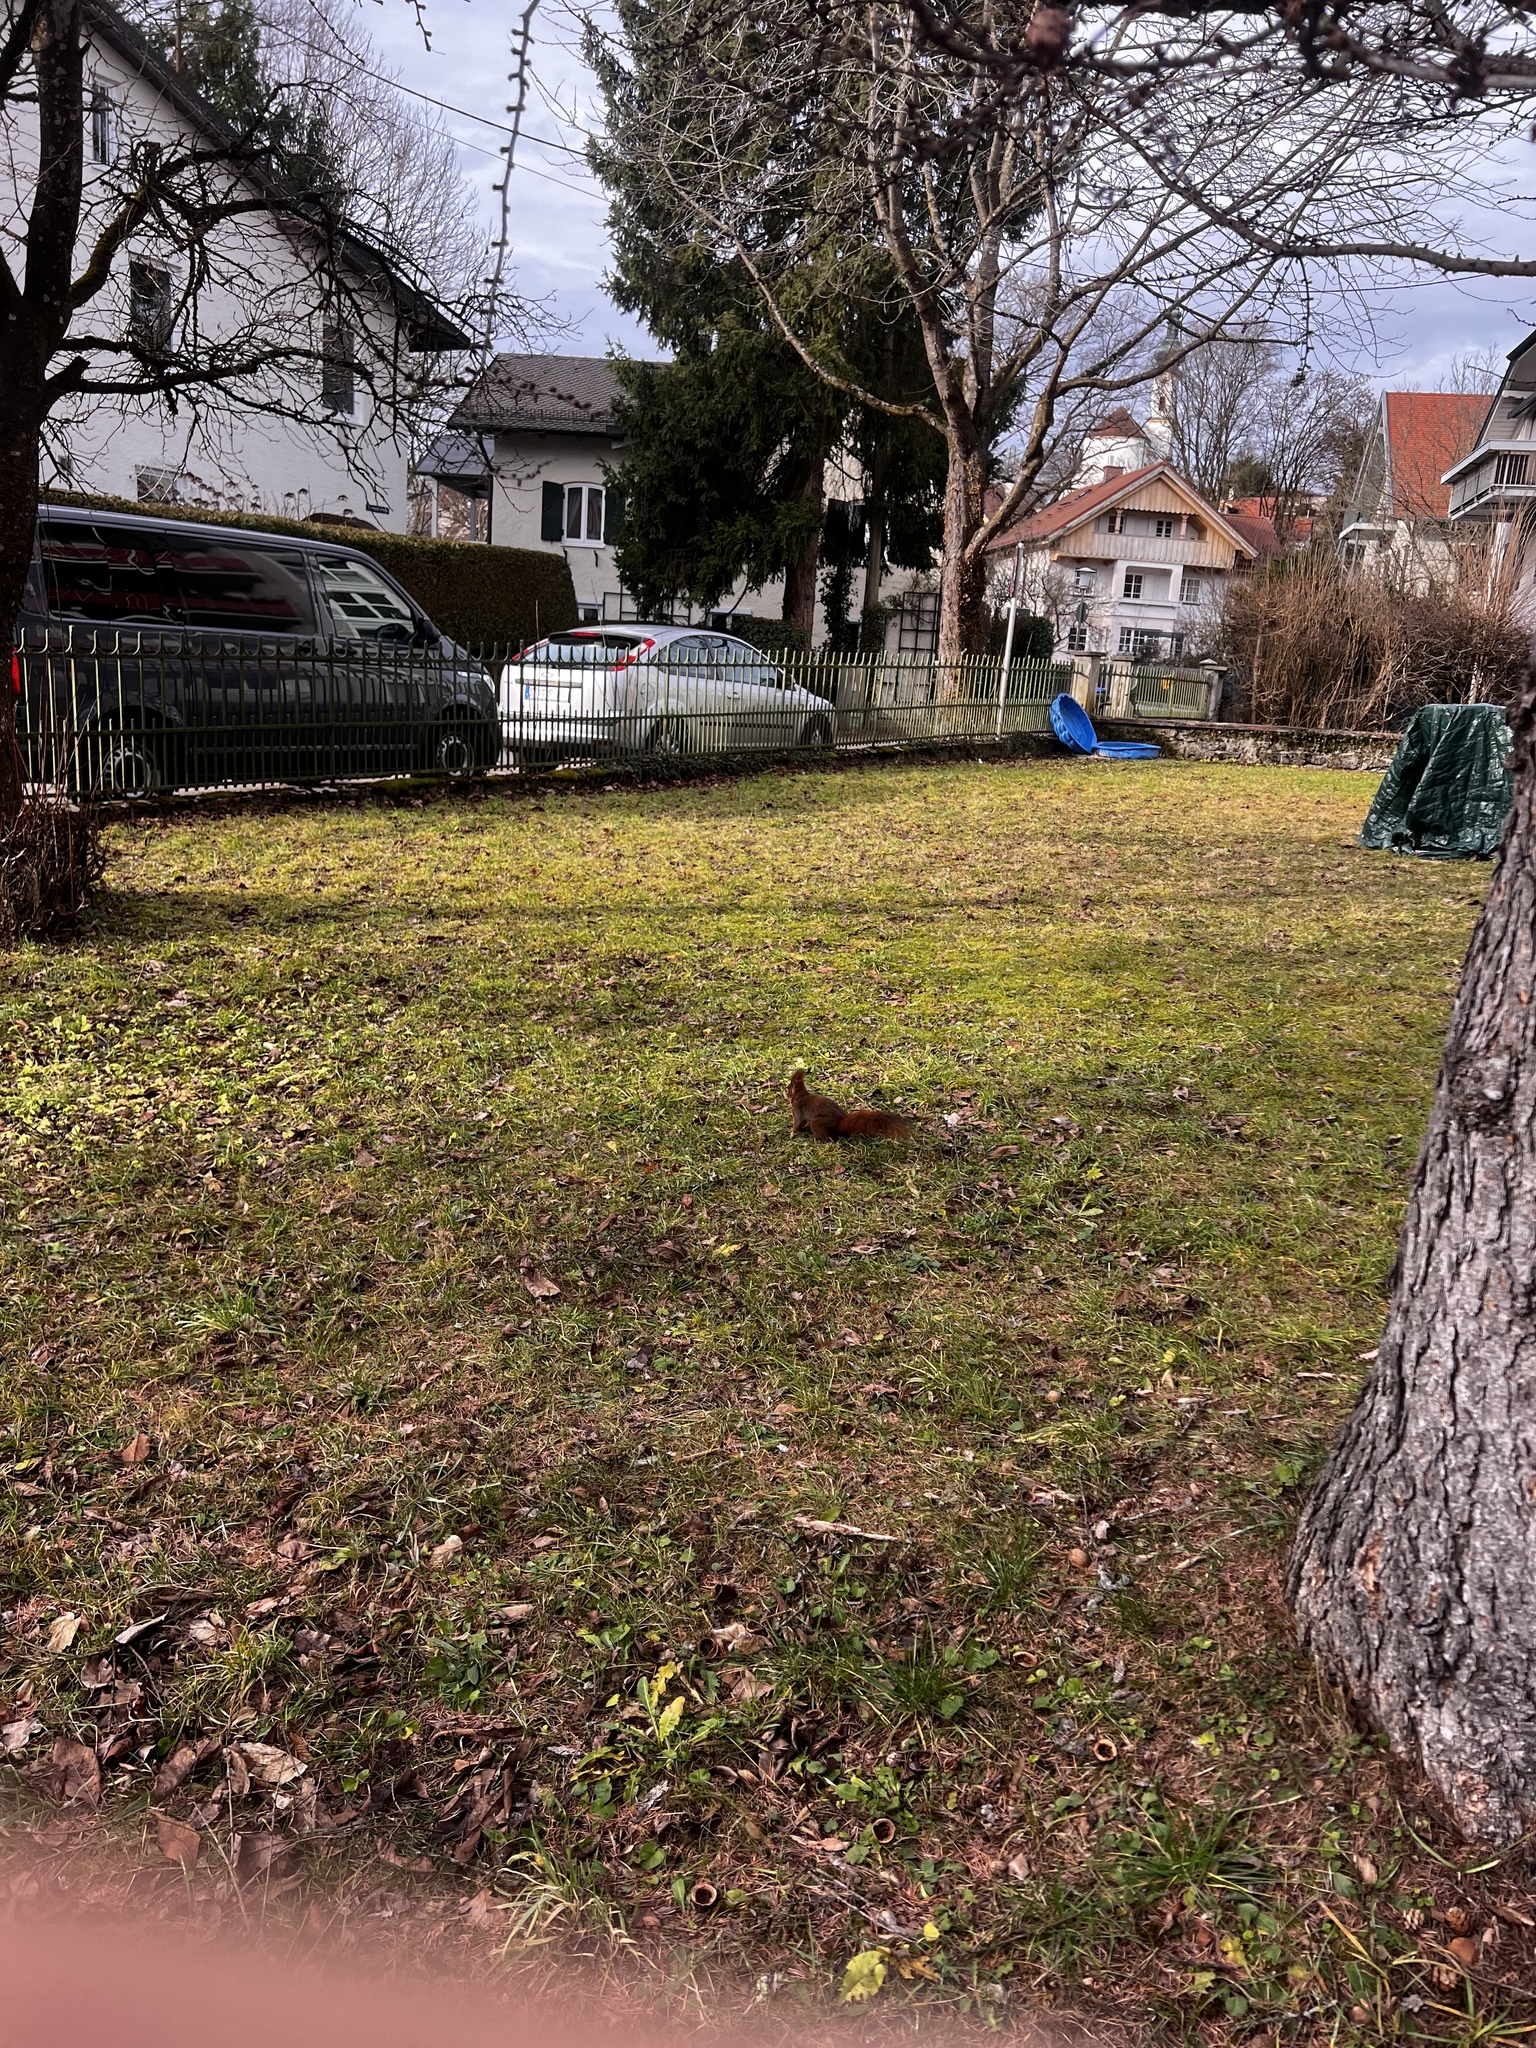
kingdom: Animalia
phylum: Chordata
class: Mammalia
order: Rodentia
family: Sciuridae
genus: Sciurus
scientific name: Sciurus vulgaris
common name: Eurasian red squirrel
